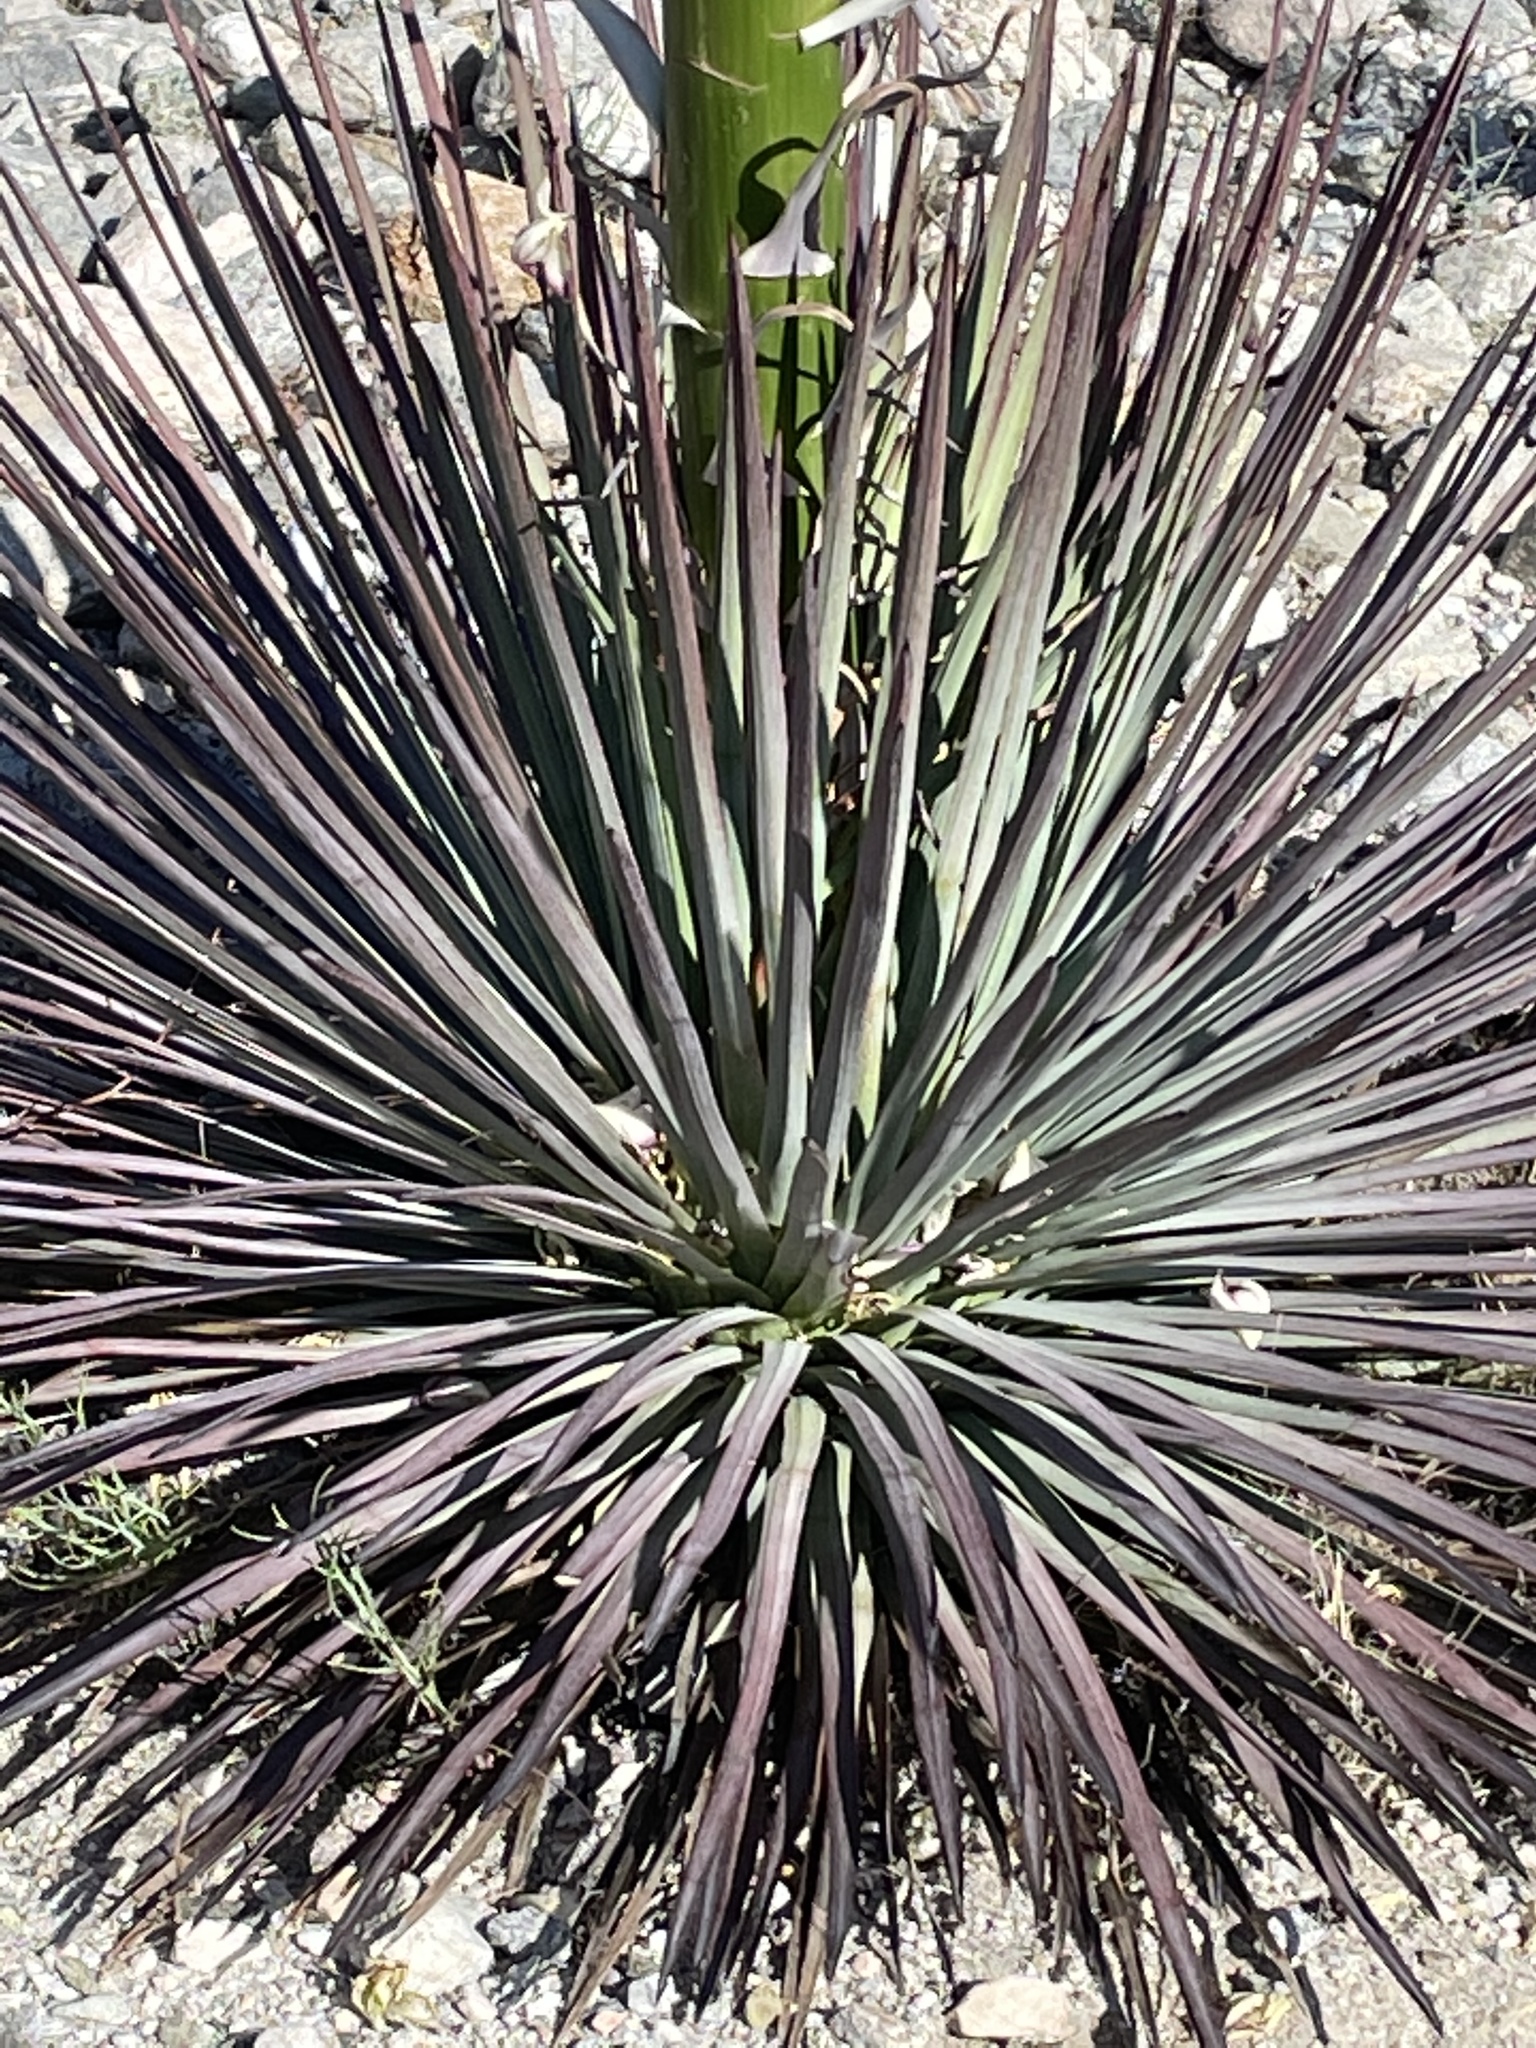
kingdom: Plantae
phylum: Tracheophyta
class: Liliopsida
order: Asparagales
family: Asparagaceae
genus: Hesperoyucca
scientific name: Hesperoyucca whipplei
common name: Our lord's-candle
